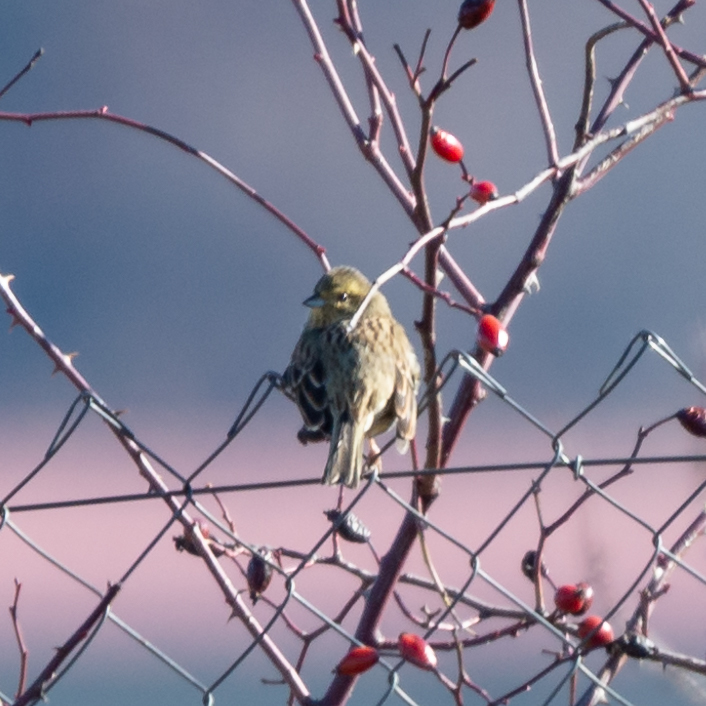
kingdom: Animalia
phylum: Chordata
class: Aves
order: Passeriformes
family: Emberizidae
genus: Emberiza
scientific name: Emberiza cirlus
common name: Cirl bunting
